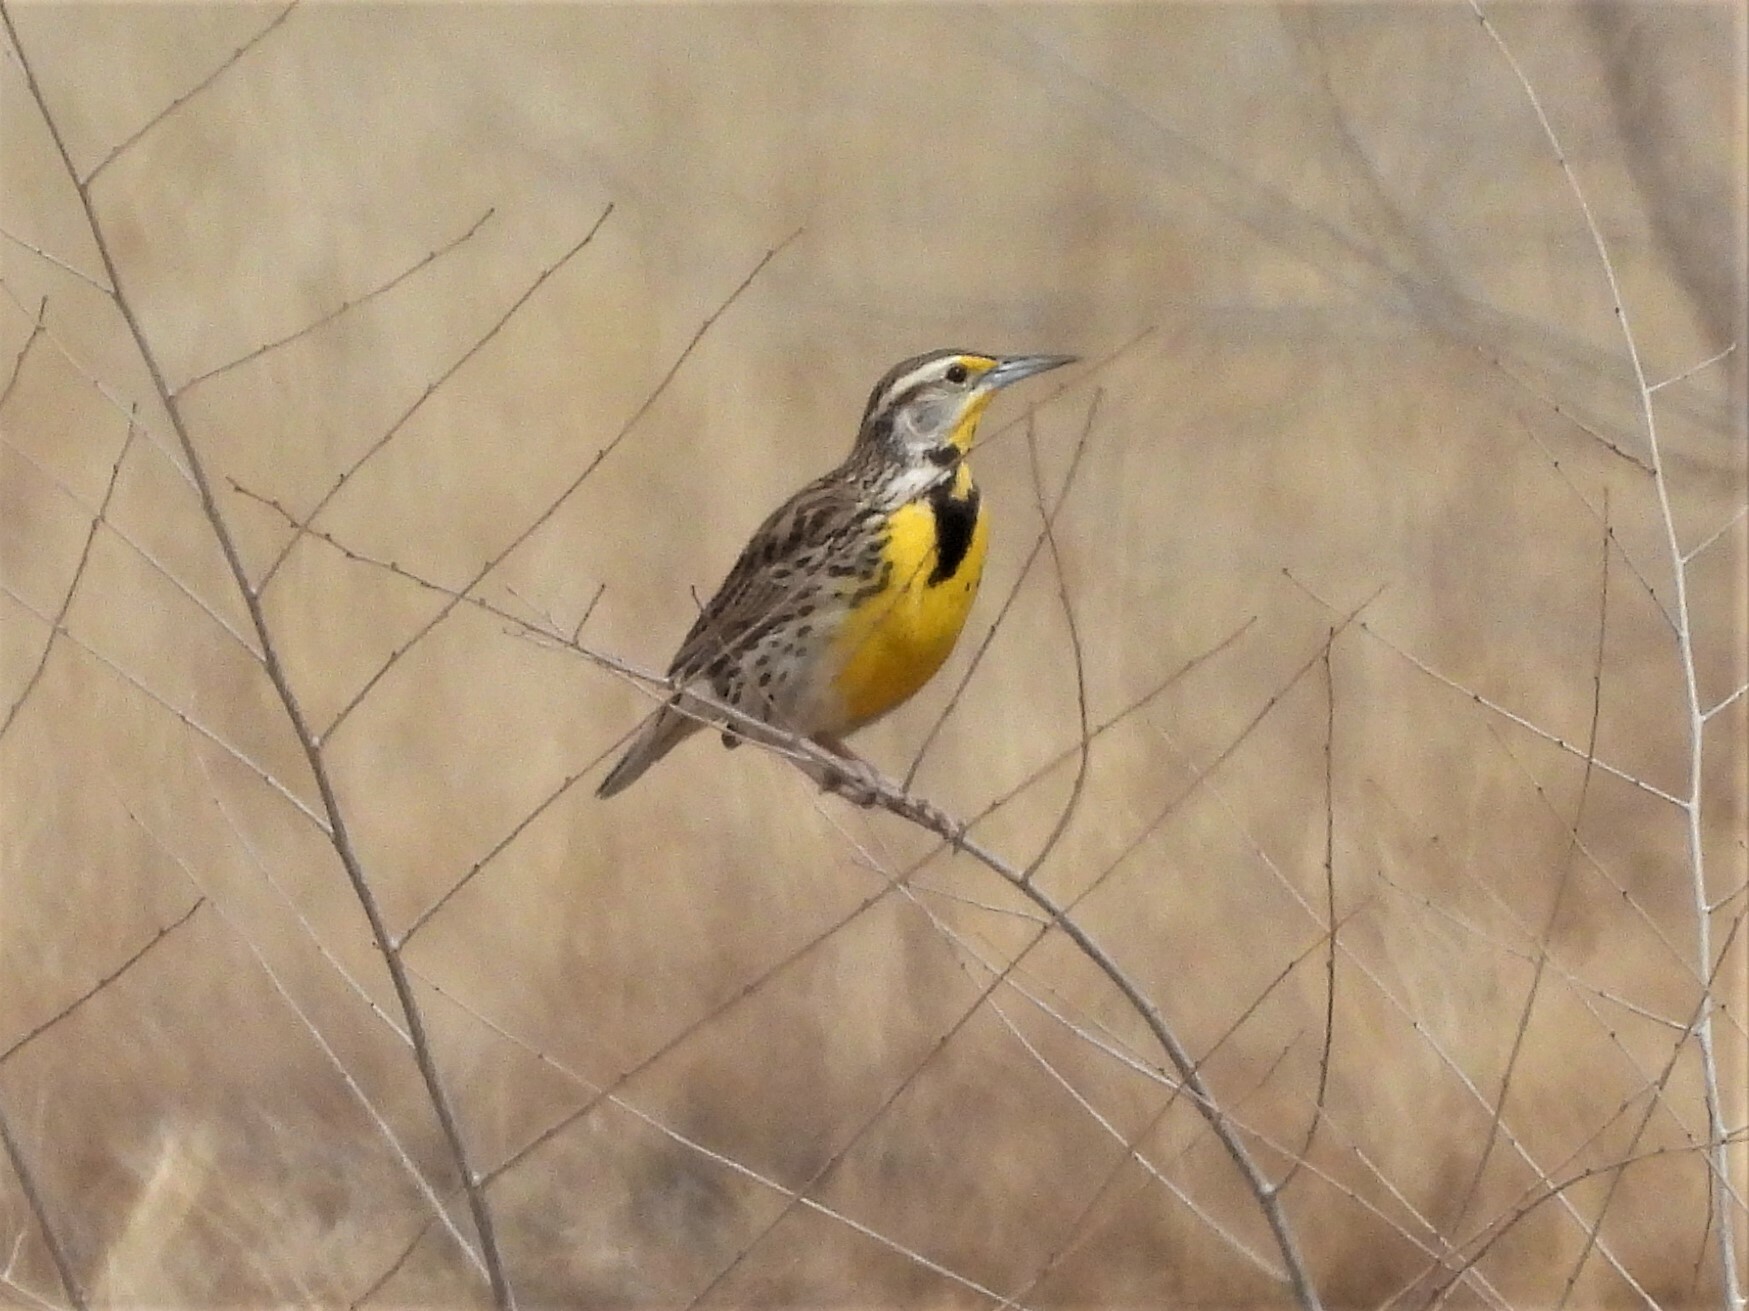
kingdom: Animalia
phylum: Chordata
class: Aves
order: Passeriformes
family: Icteridae
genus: Sturnella
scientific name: Sturnella neglecta
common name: Western meadowlark
